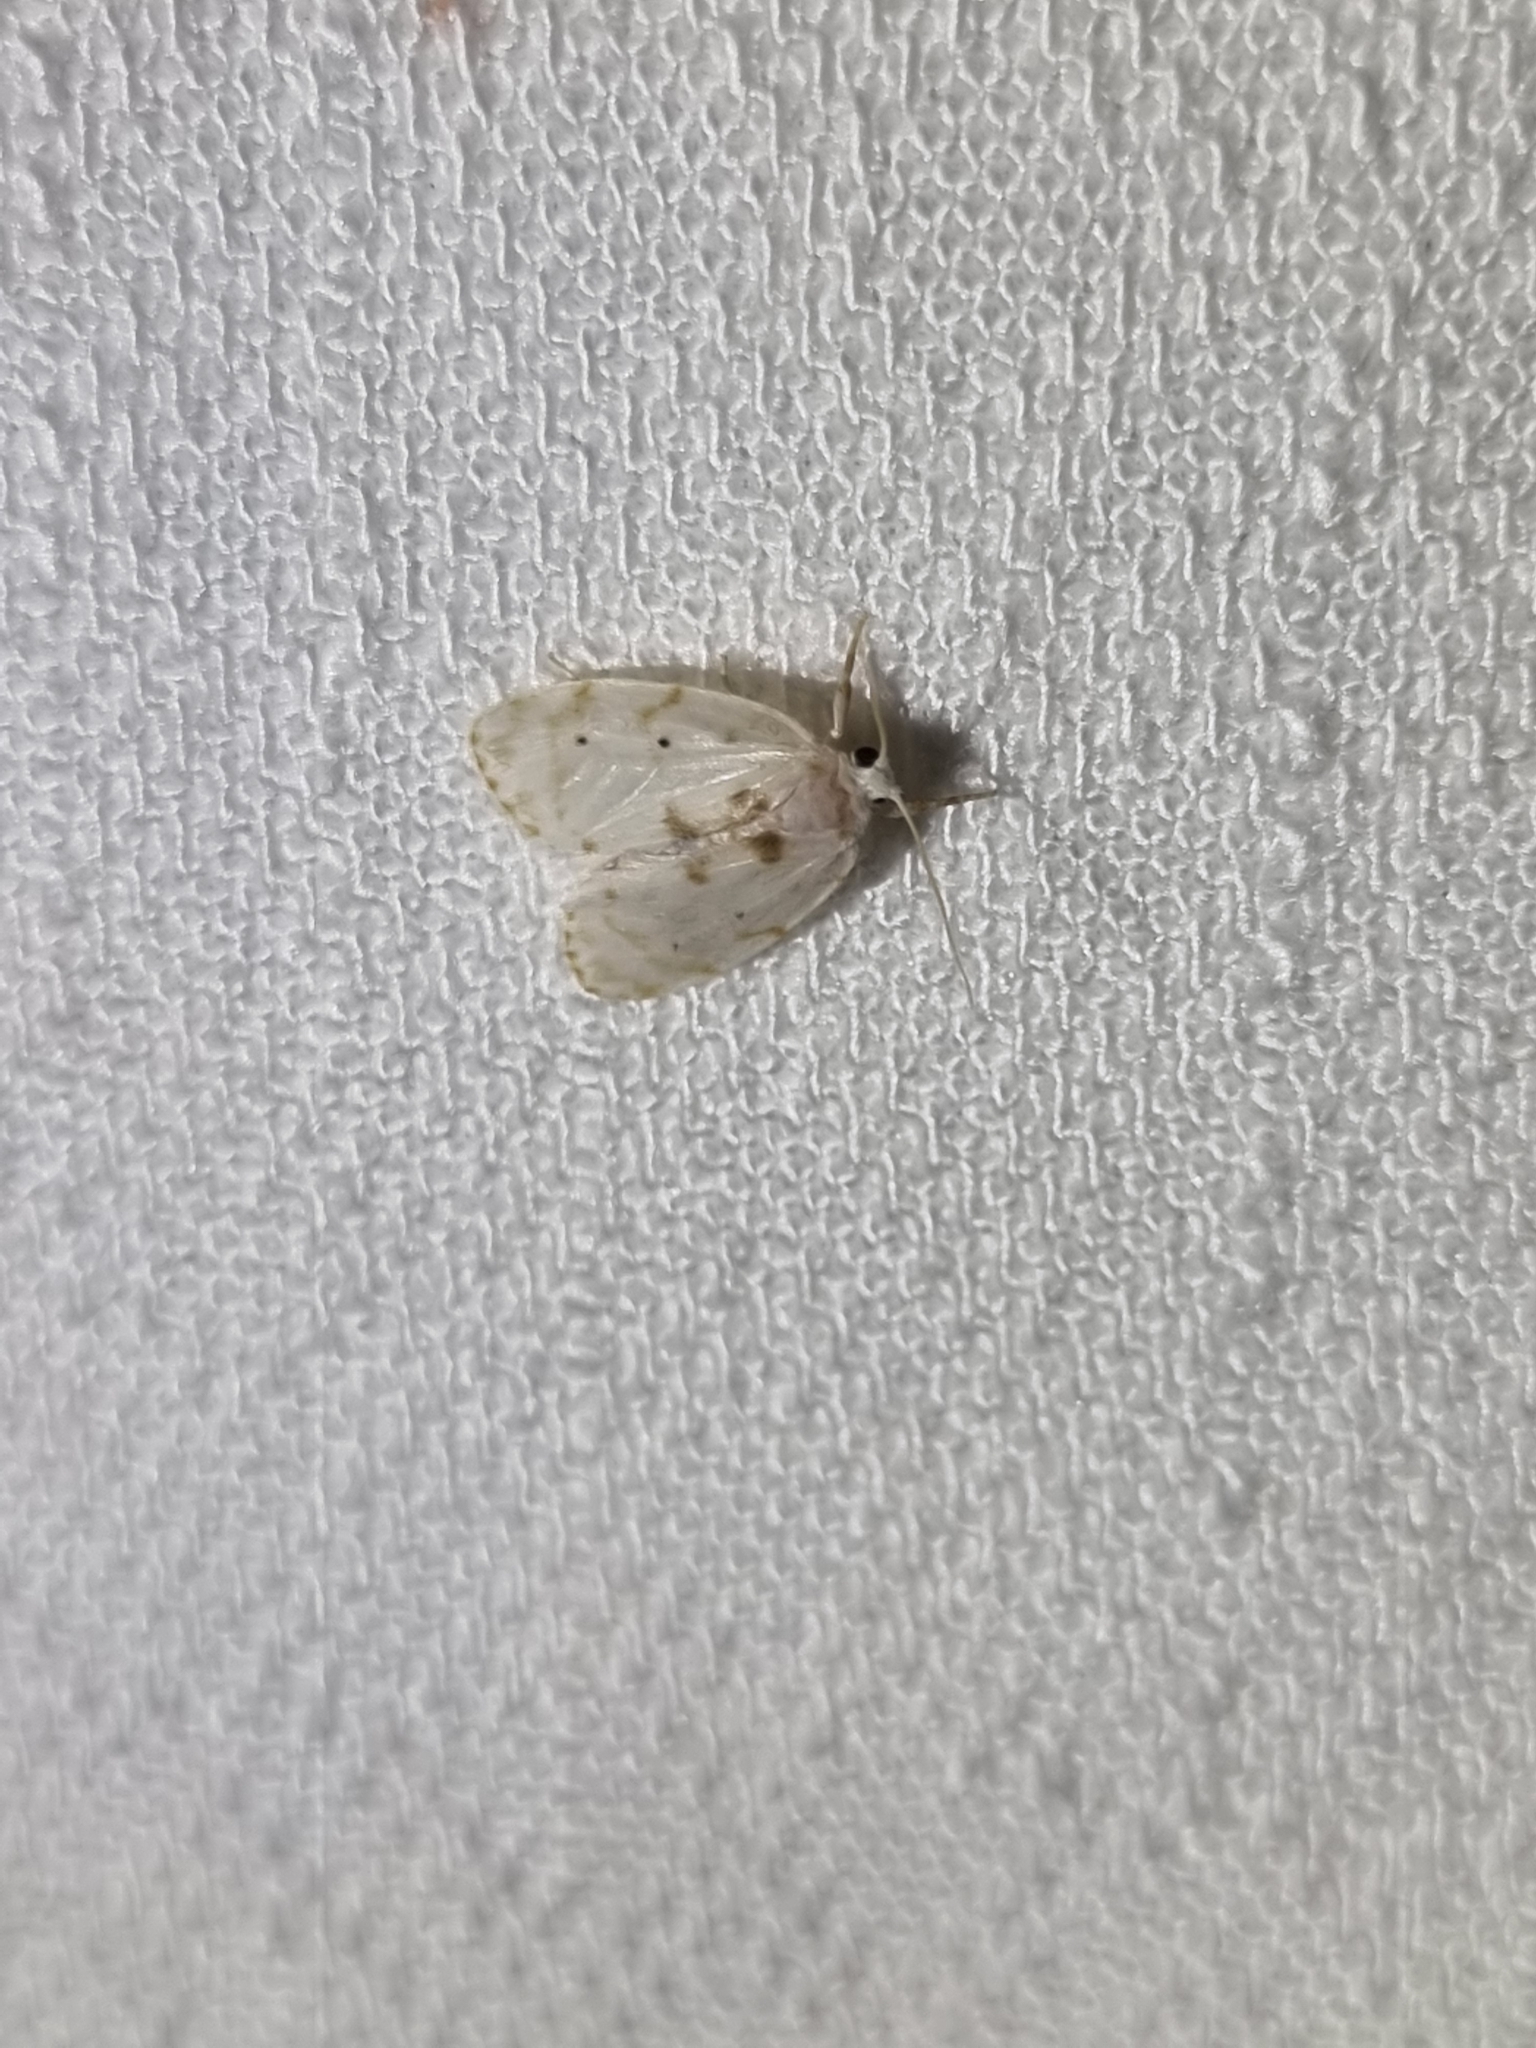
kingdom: Animalia
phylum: Arthropoda
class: Insecta
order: Lepidoptera
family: Erebidae
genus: Schistophleps
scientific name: Schistophleps albida
